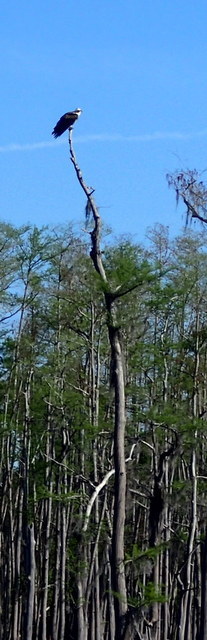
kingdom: Animalia
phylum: Chordata
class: Aves
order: Accipitriformes
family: Pandionidae
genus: Pandion
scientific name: Pandion haliaetus
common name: Osprey
